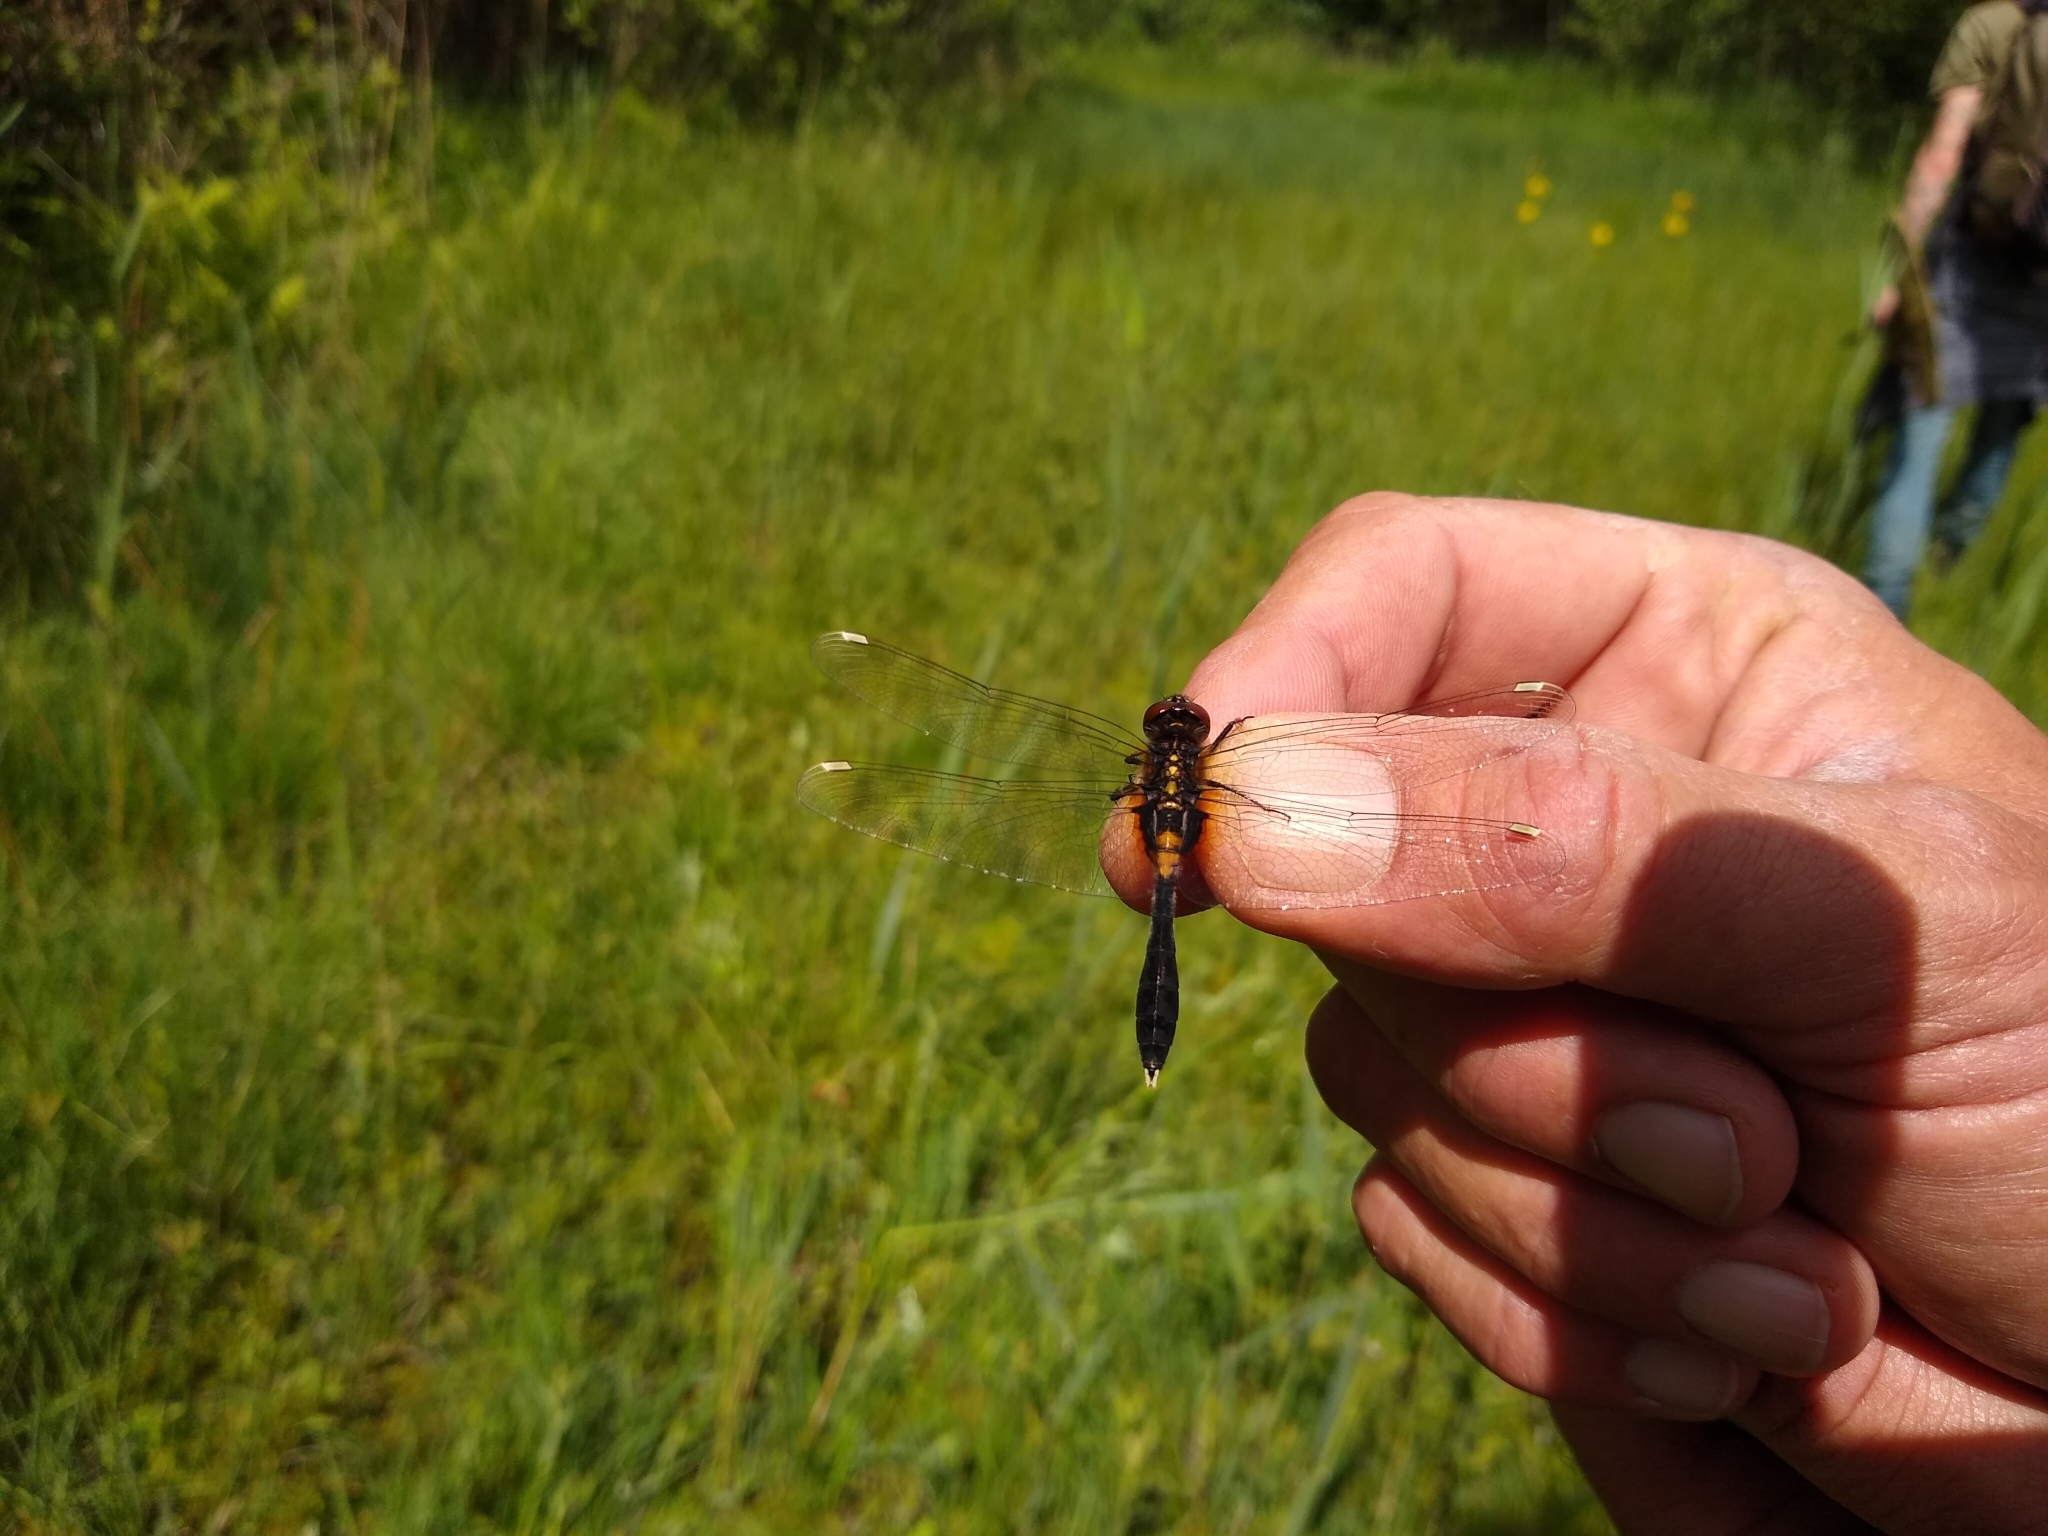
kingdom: Animalia
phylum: Arthropoda
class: Insecta
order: Odonata
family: Libellulidae
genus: Leucorrhinia
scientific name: Leucorrhinia caudalis
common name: Lilypad whiteface
